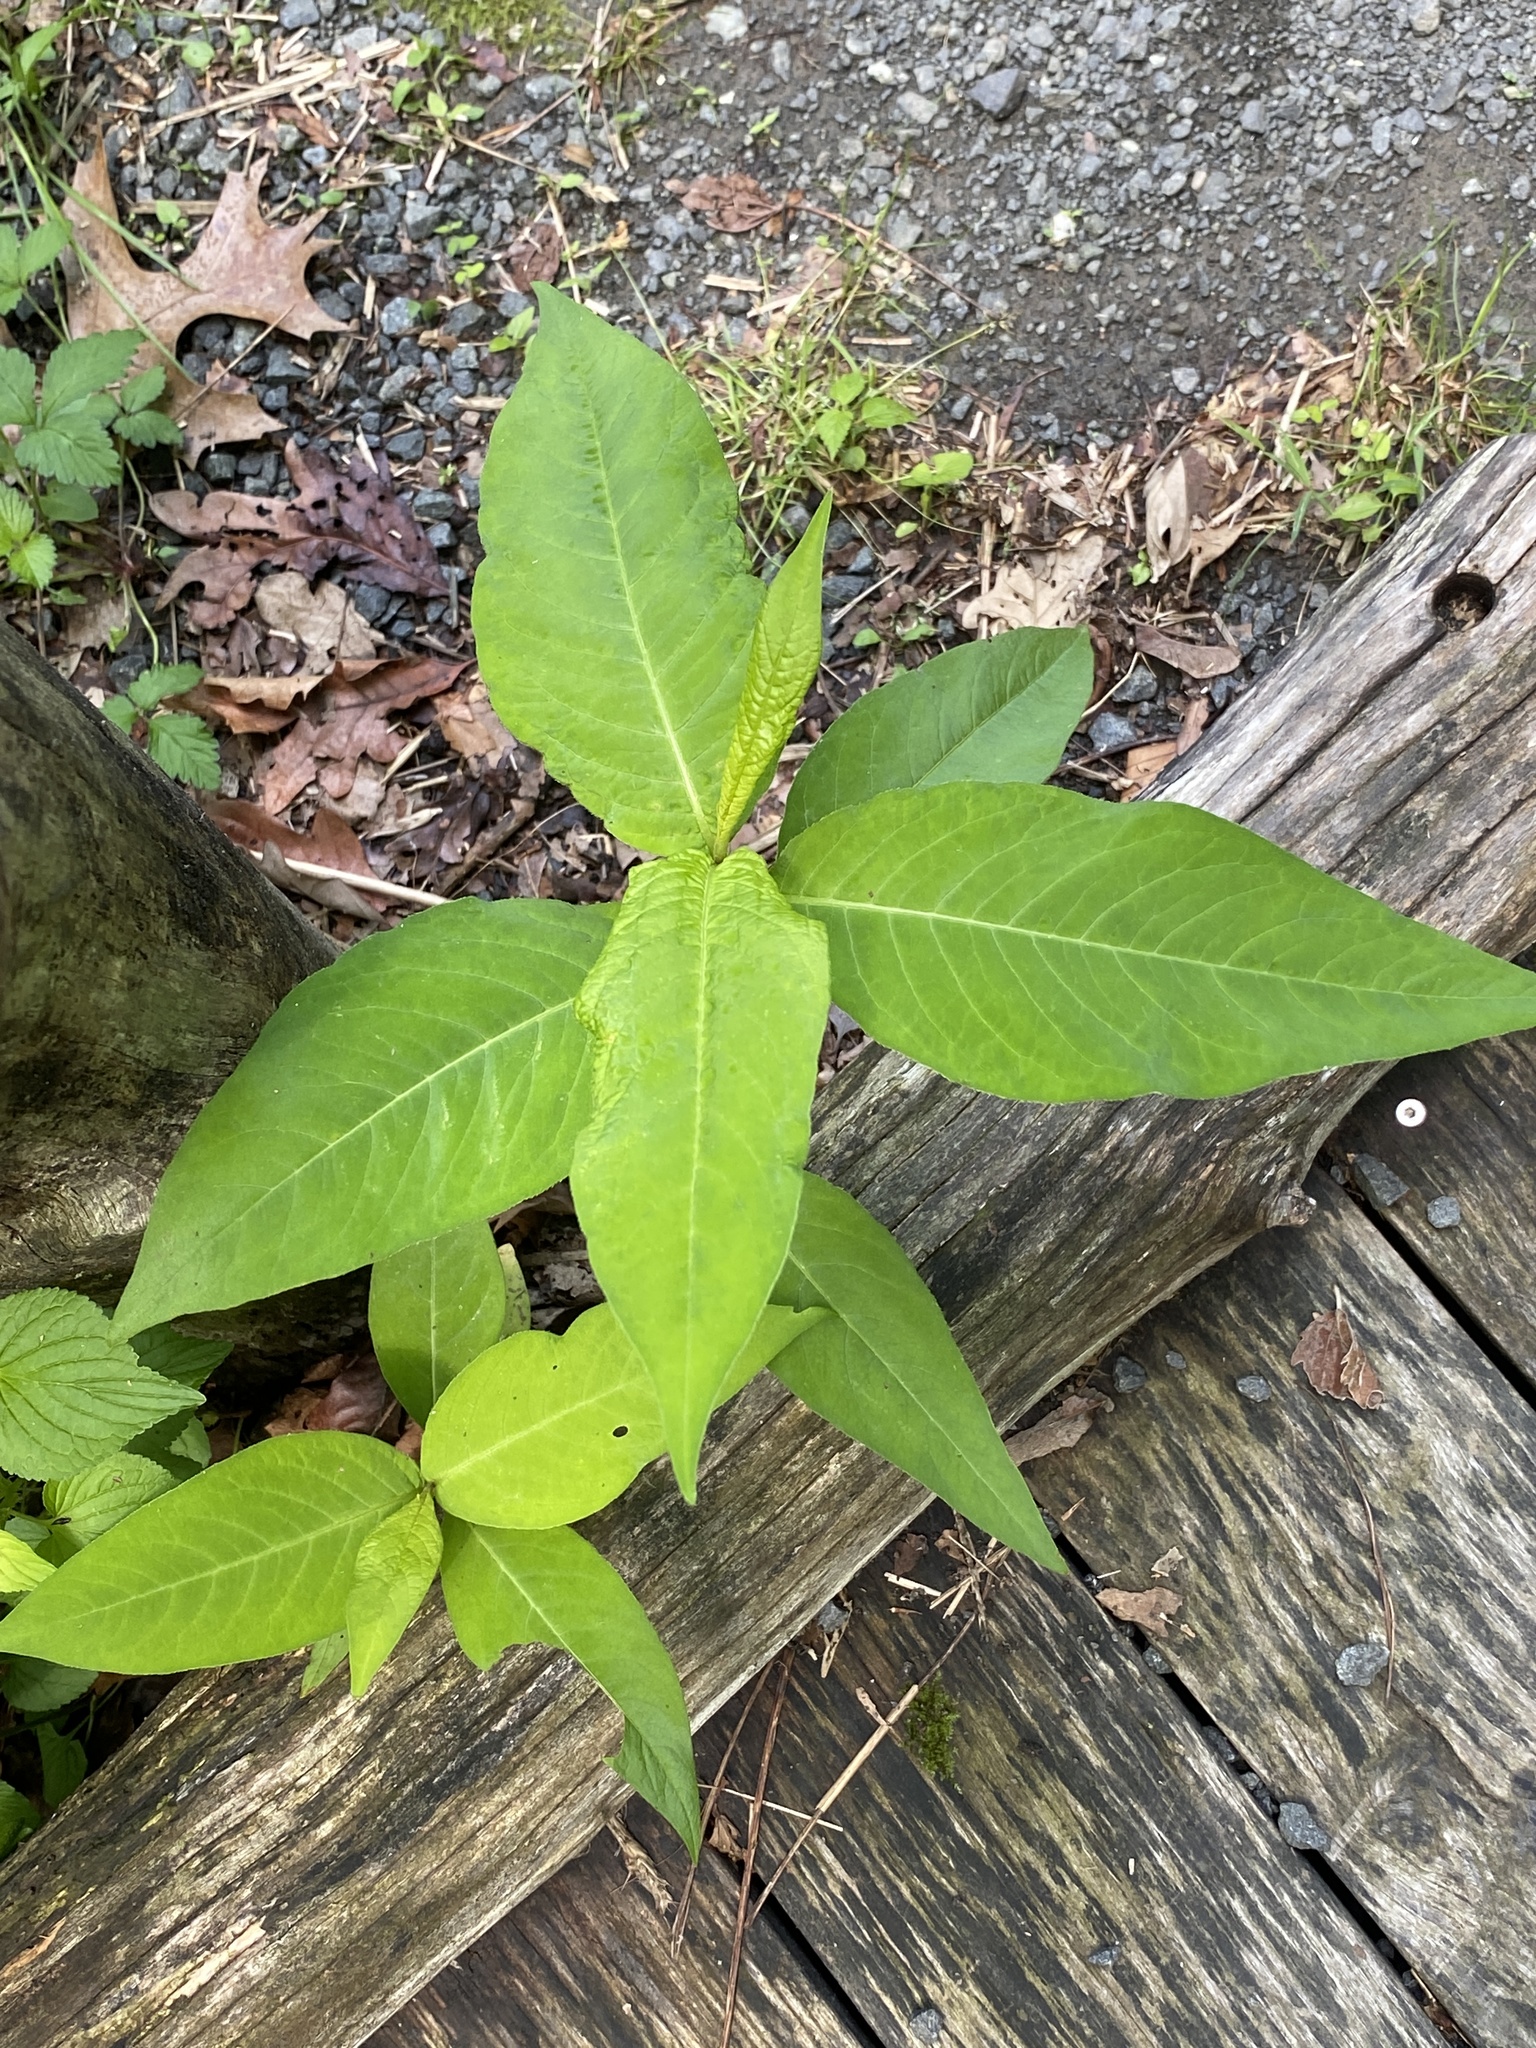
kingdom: Plantae
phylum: Tracheophyta
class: Magnoliopsida
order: Caryophyllales
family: Polygonaceae
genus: Persicaria
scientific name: Persicaria virginiana
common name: Jumpseed
